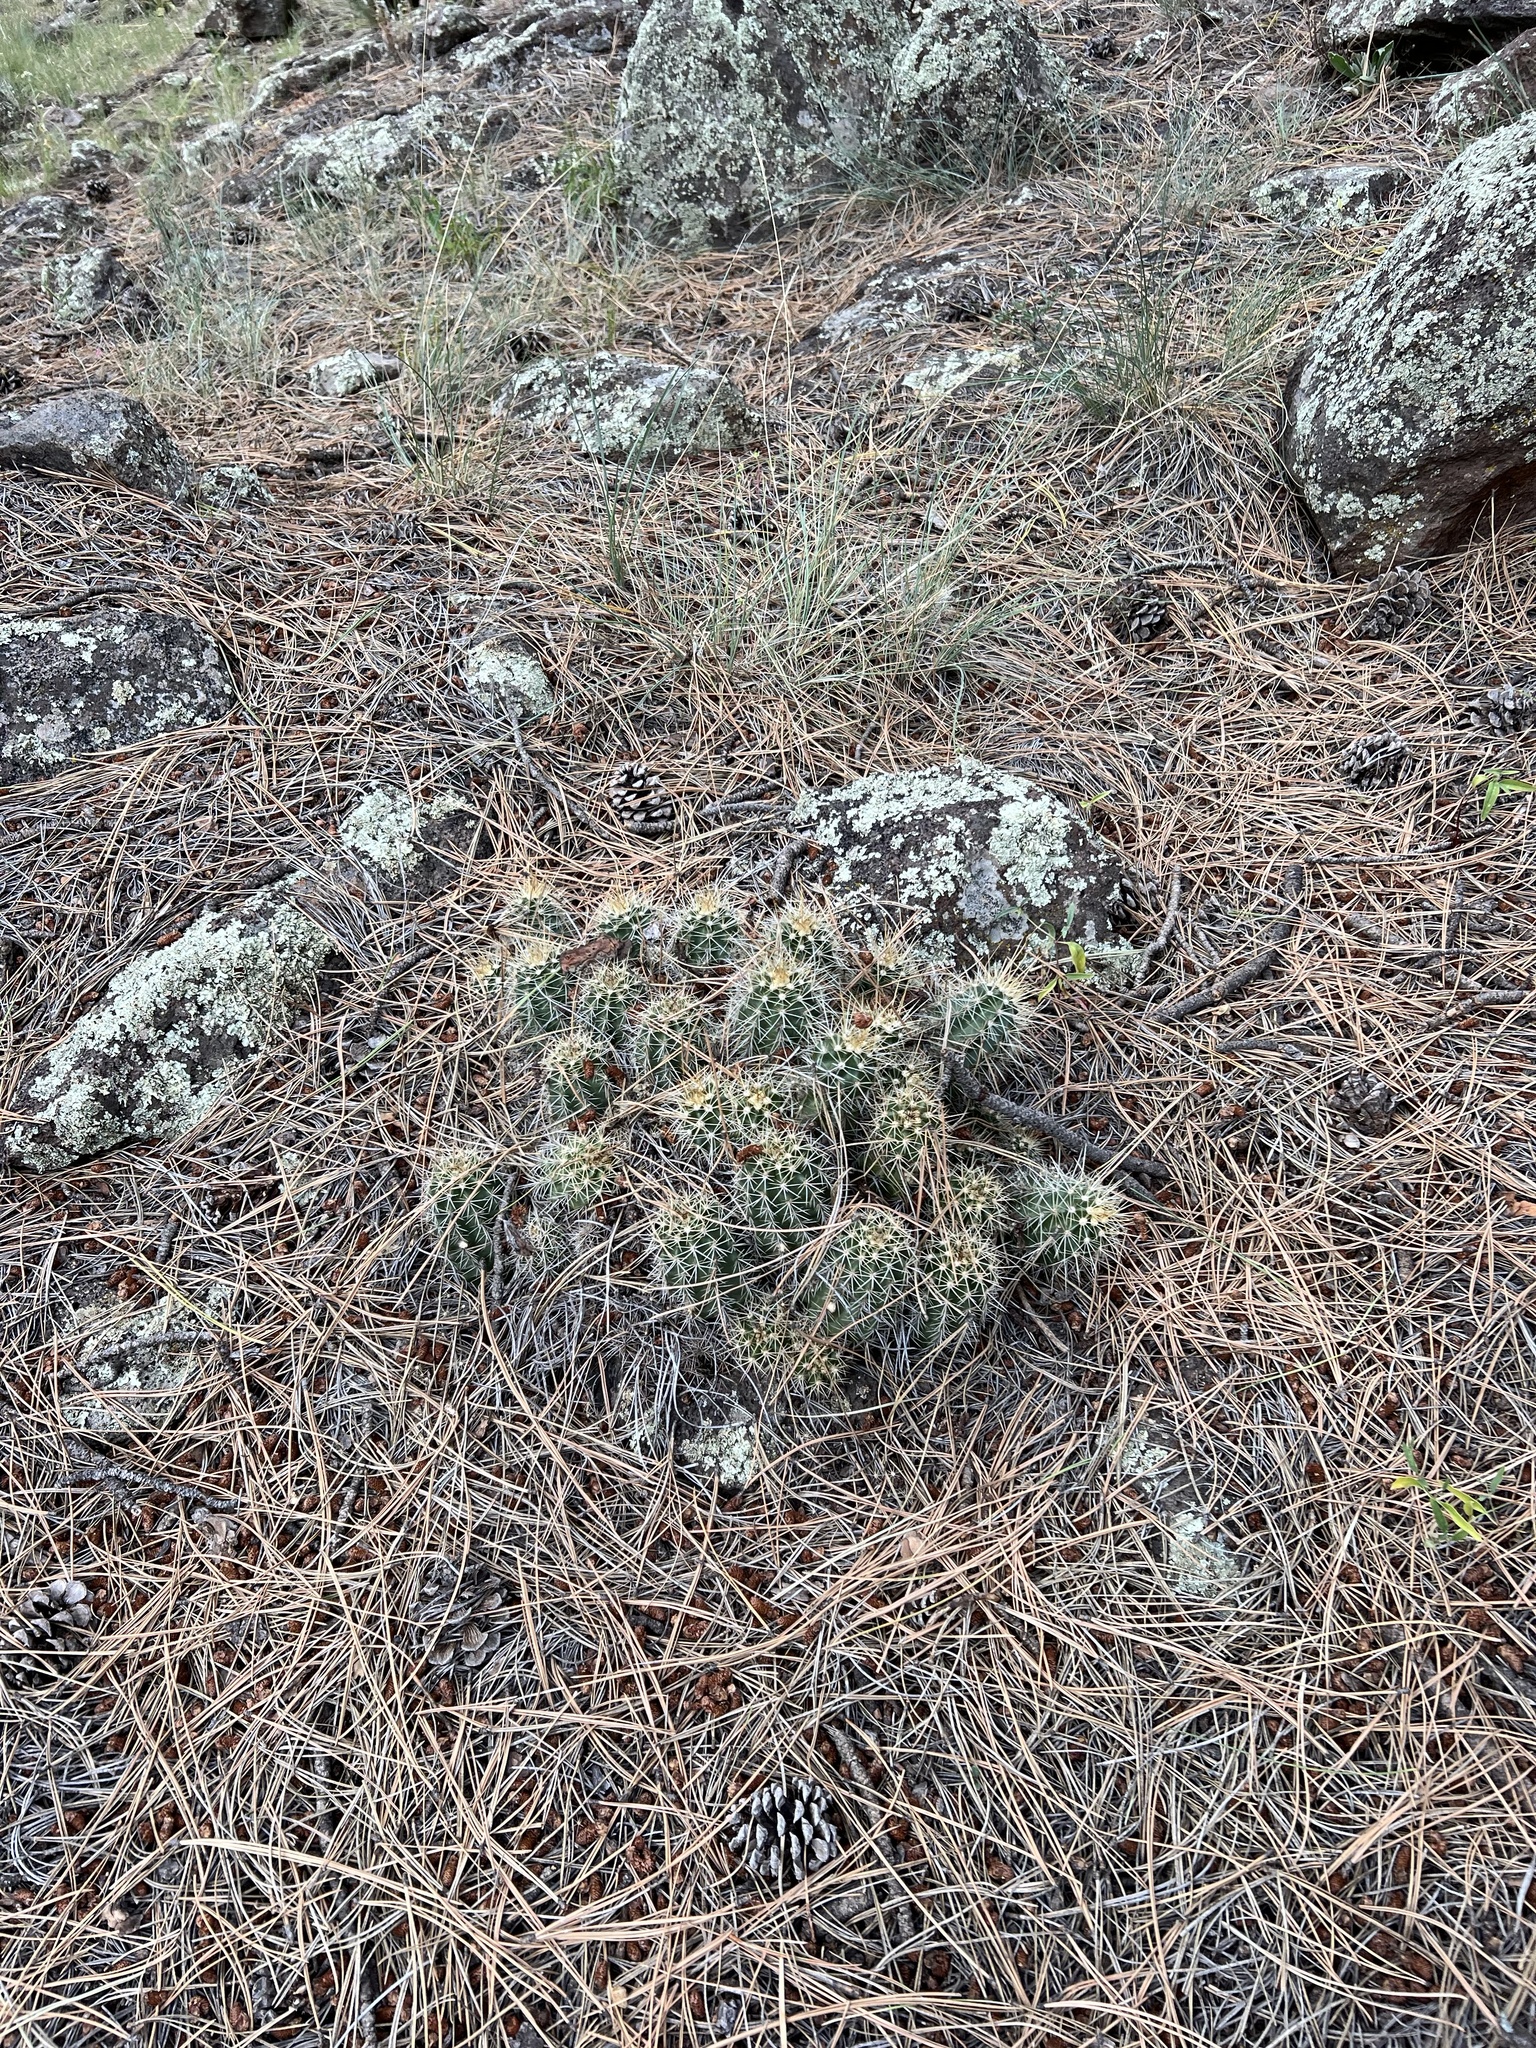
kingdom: Plantae
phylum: Tracheophyta
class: Magnoliopsida
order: Caryophyllales
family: Cactaceae
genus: Echinocereus
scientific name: Echinocereus bakeri
